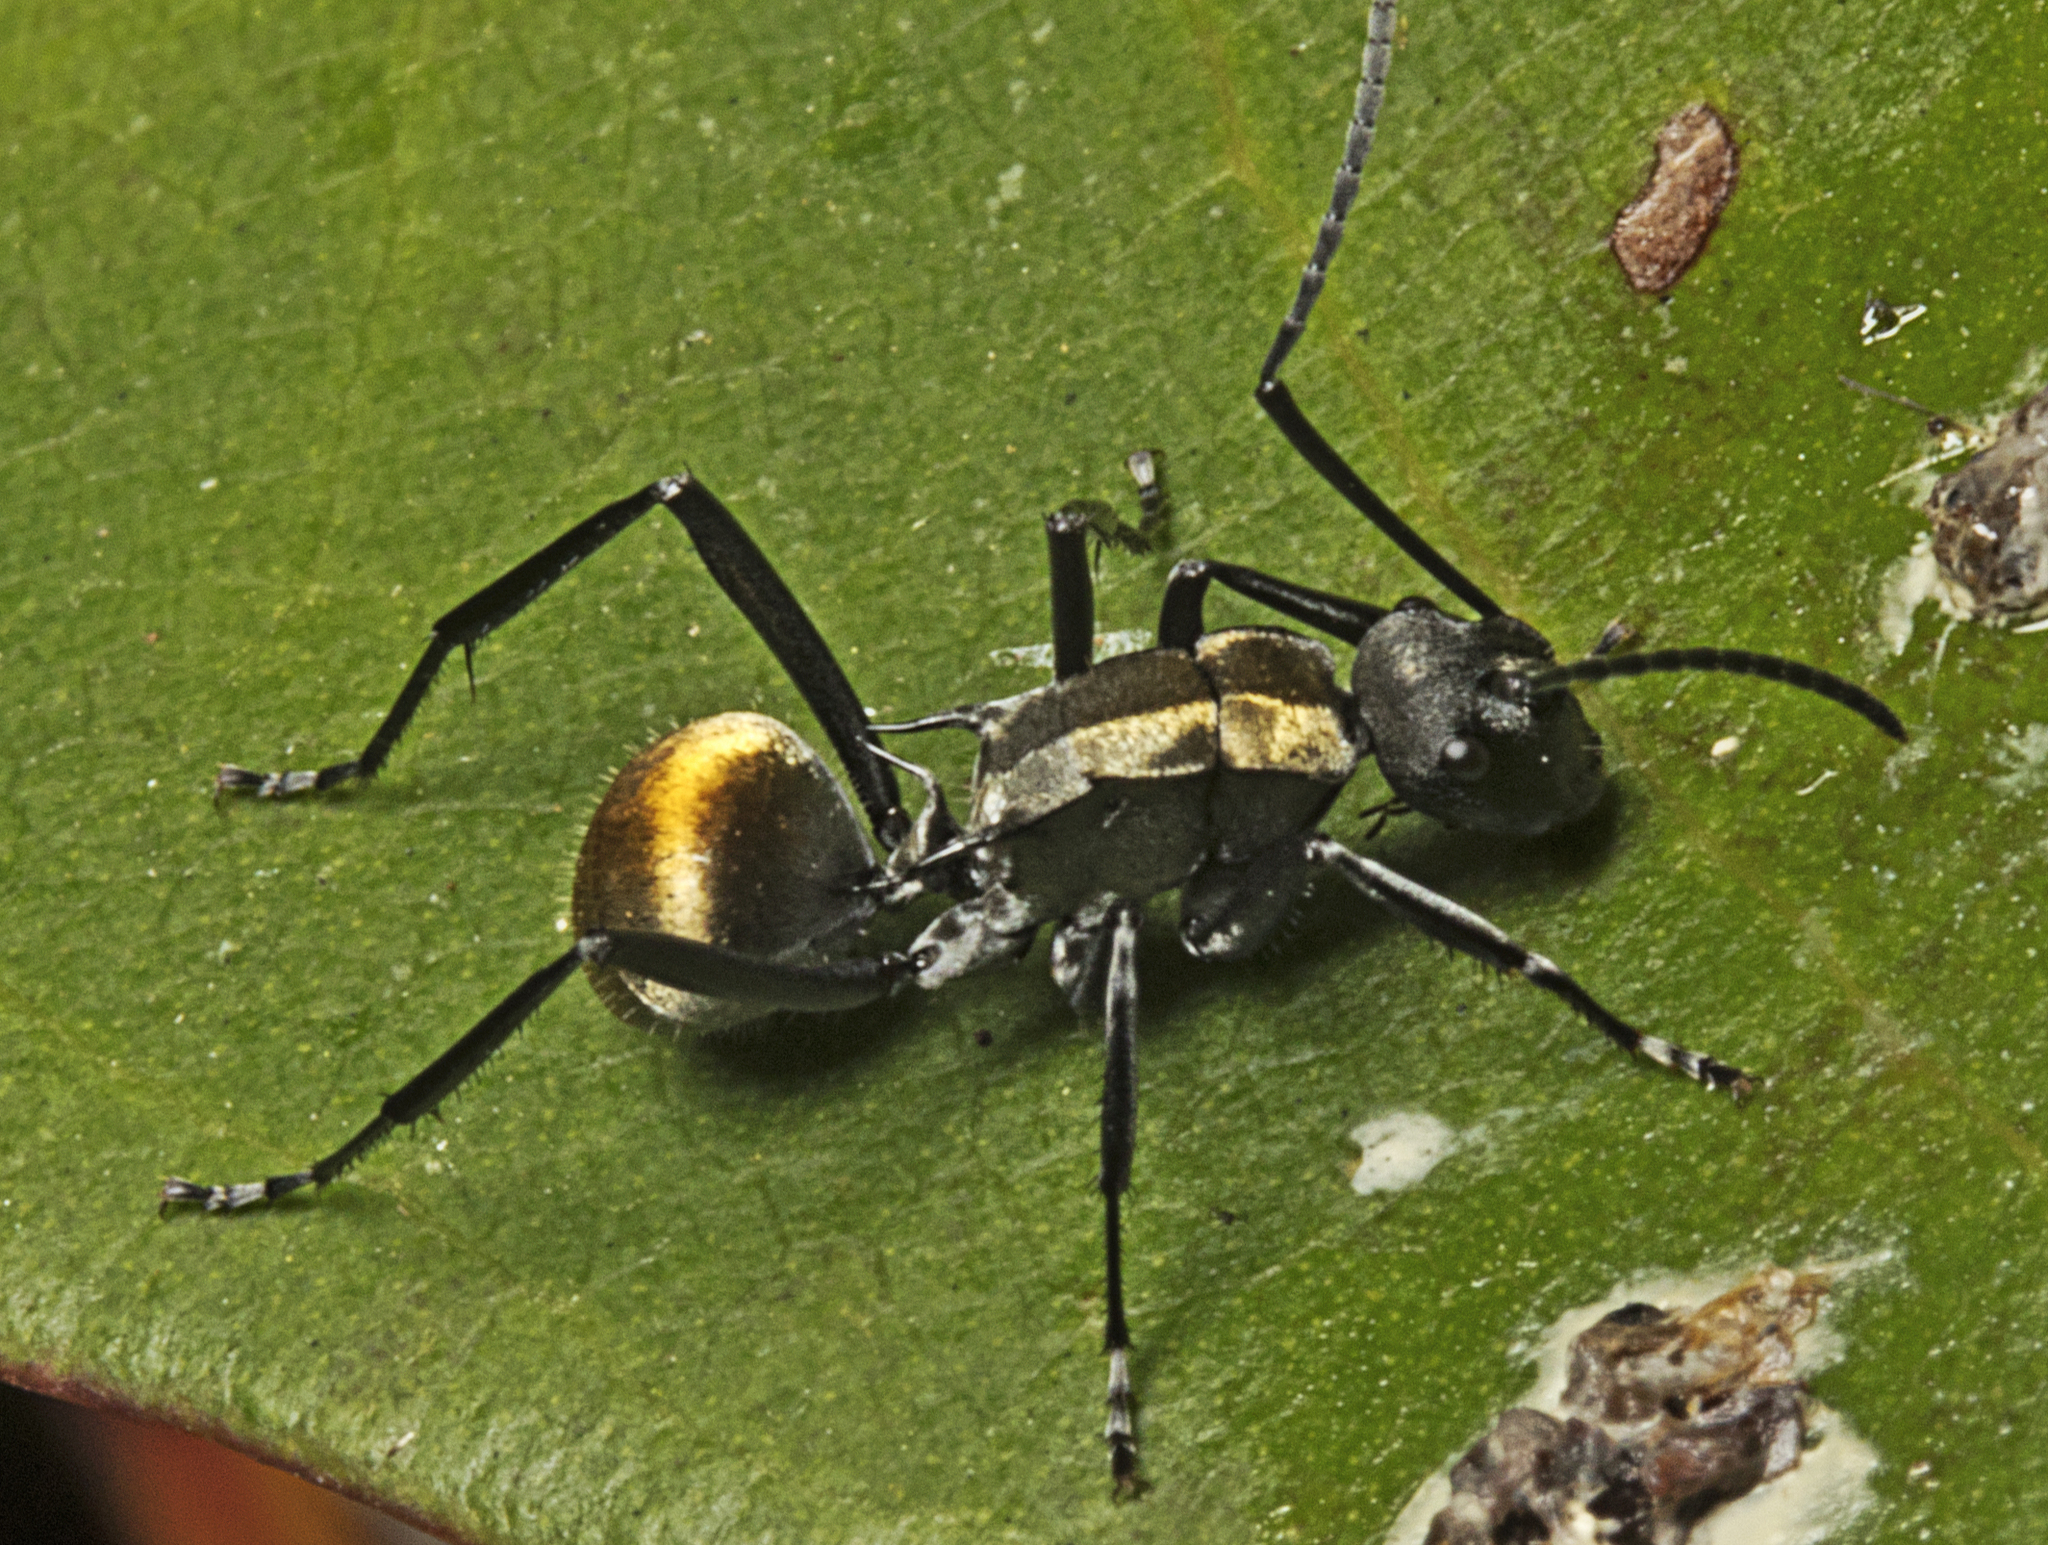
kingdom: Animalia
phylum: Arthropoda
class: Insecta
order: Hymenoptera
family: Formicidae
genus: Polyrhachis
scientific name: Polyrhachis ammon
